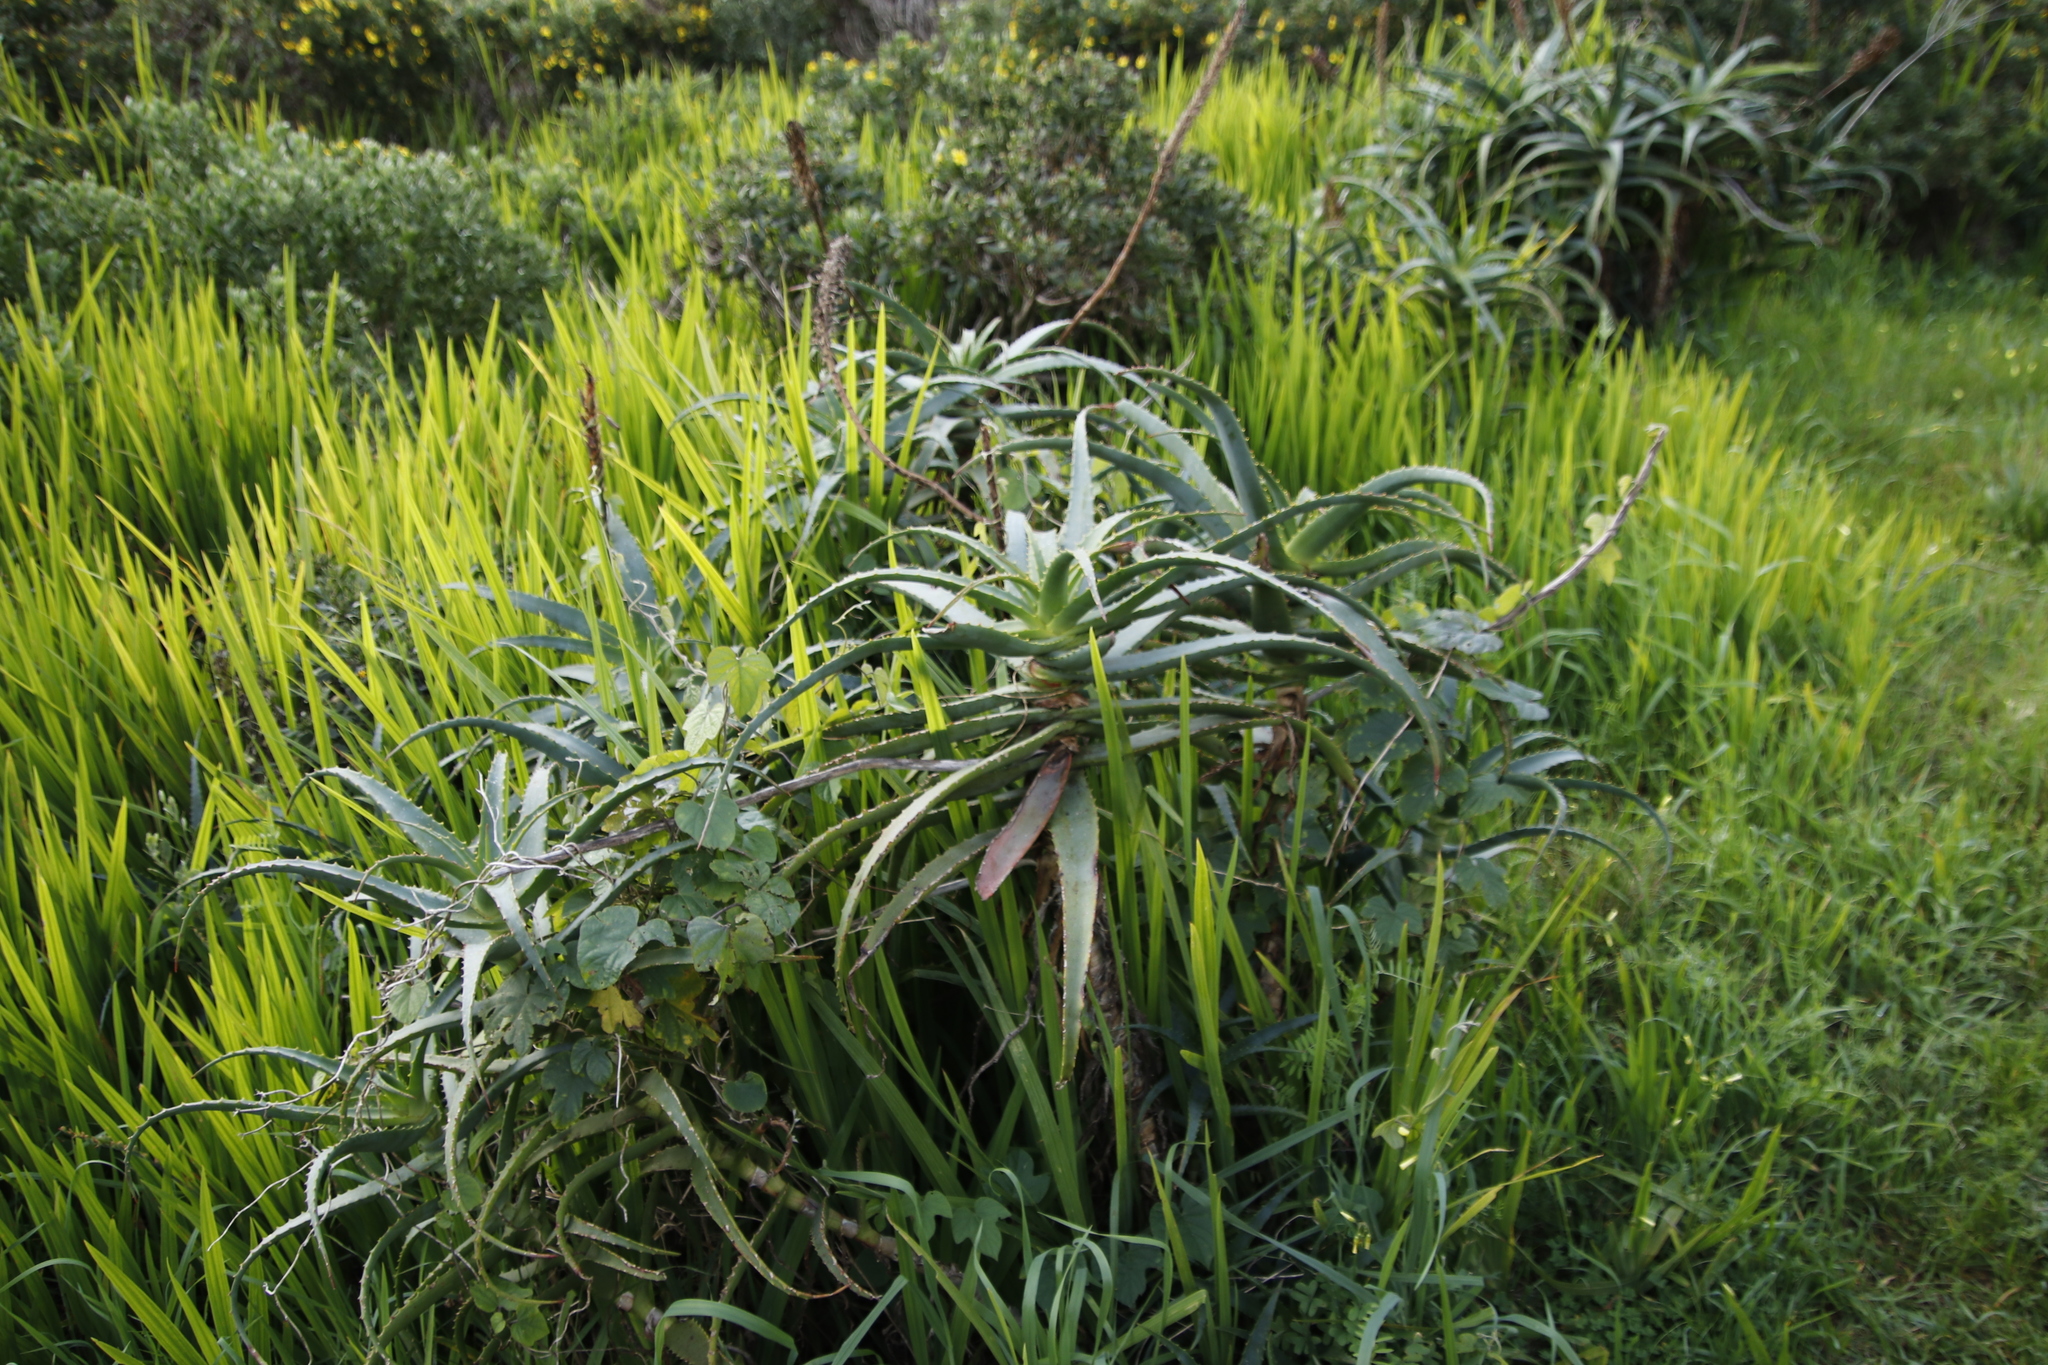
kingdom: Plantae
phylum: Tracheophyta
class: Liliopsida
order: Asparagales
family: Asphodelaceae
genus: Aloe
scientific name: Aloe arborescens
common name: Candelabra aloe
